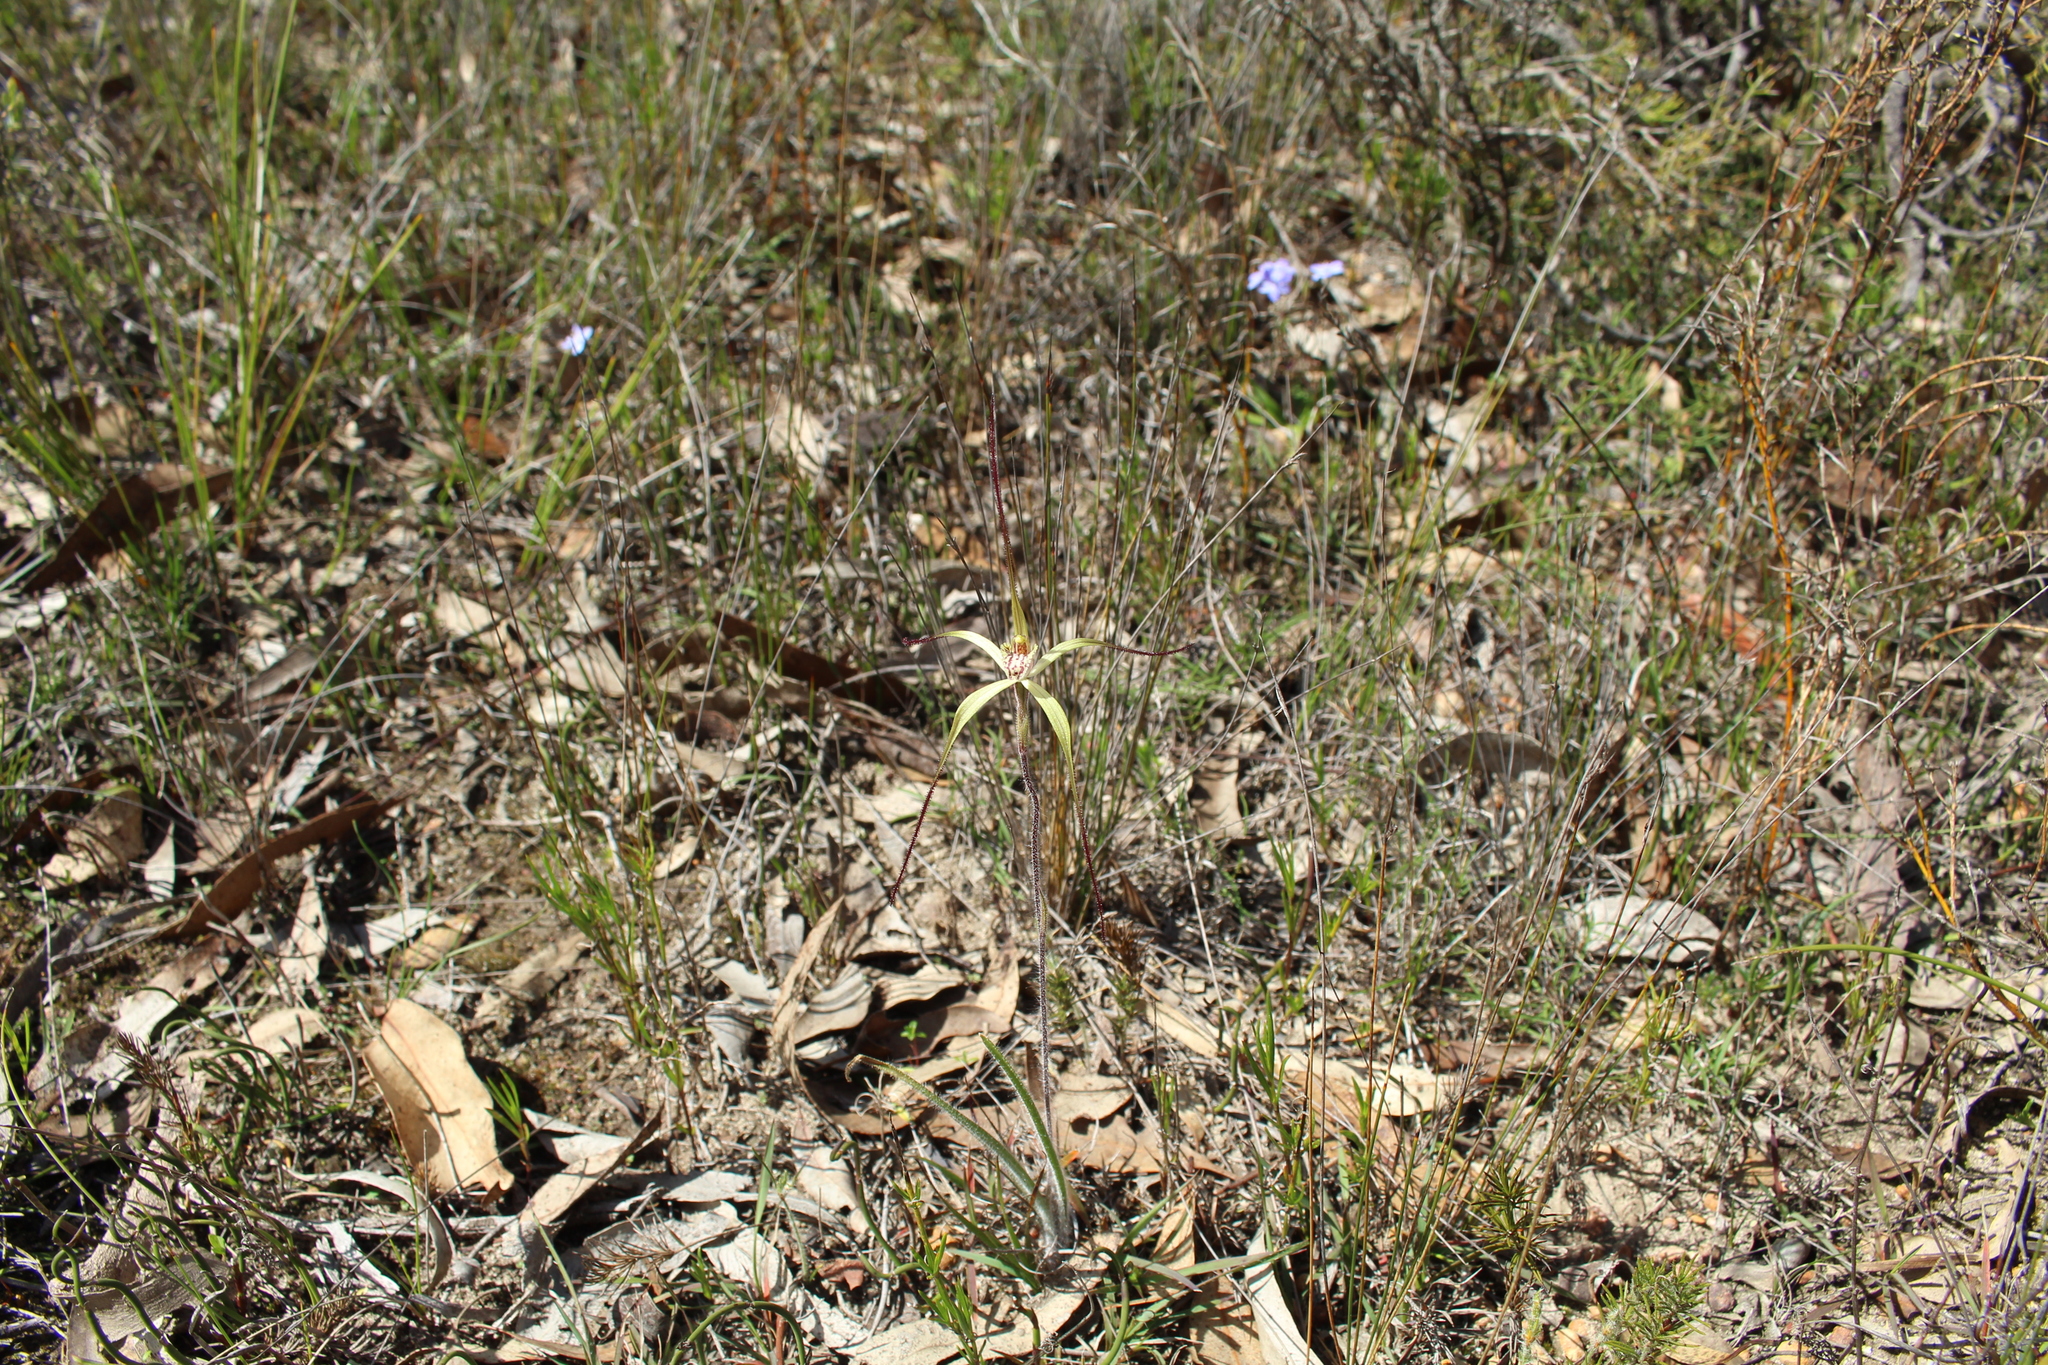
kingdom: Plantae
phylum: Tracheophyta
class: Liliopsida
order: Asparagales
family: Orchidaceae
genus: Caladenia
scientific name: Caladenia straminichila
